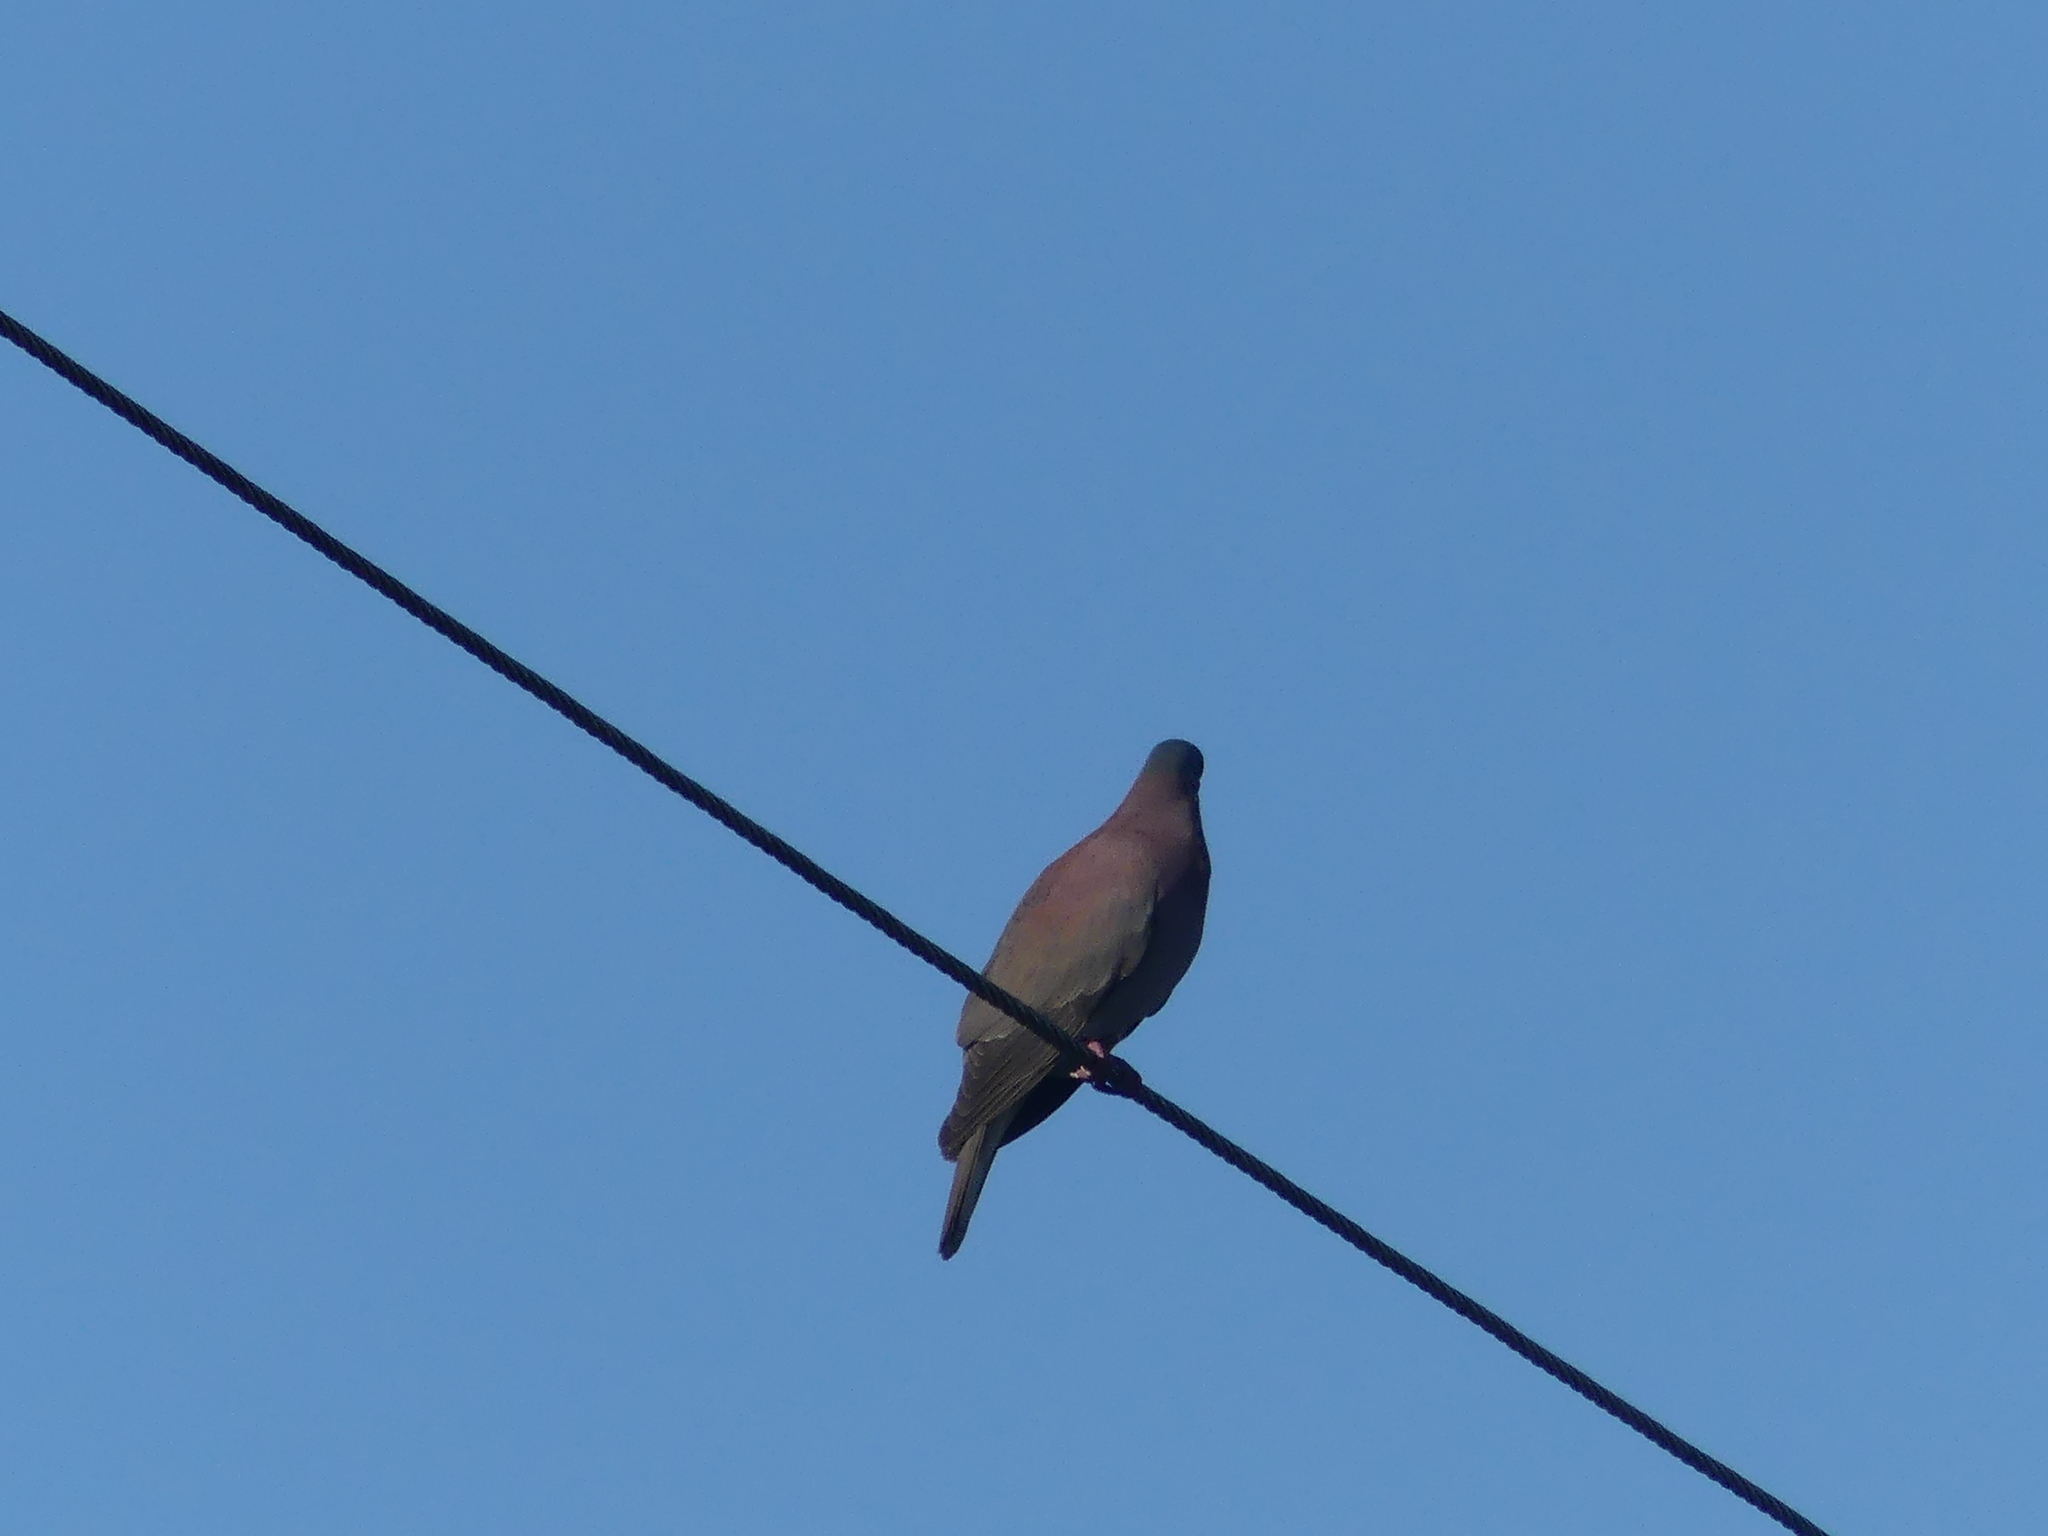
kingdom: Animalia
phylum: Chordata
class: Aves
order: Columbiformes
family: Columbidae
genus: Patagioenas
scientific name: Patagioenas cayennensis
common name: Pale-vented pigeon
